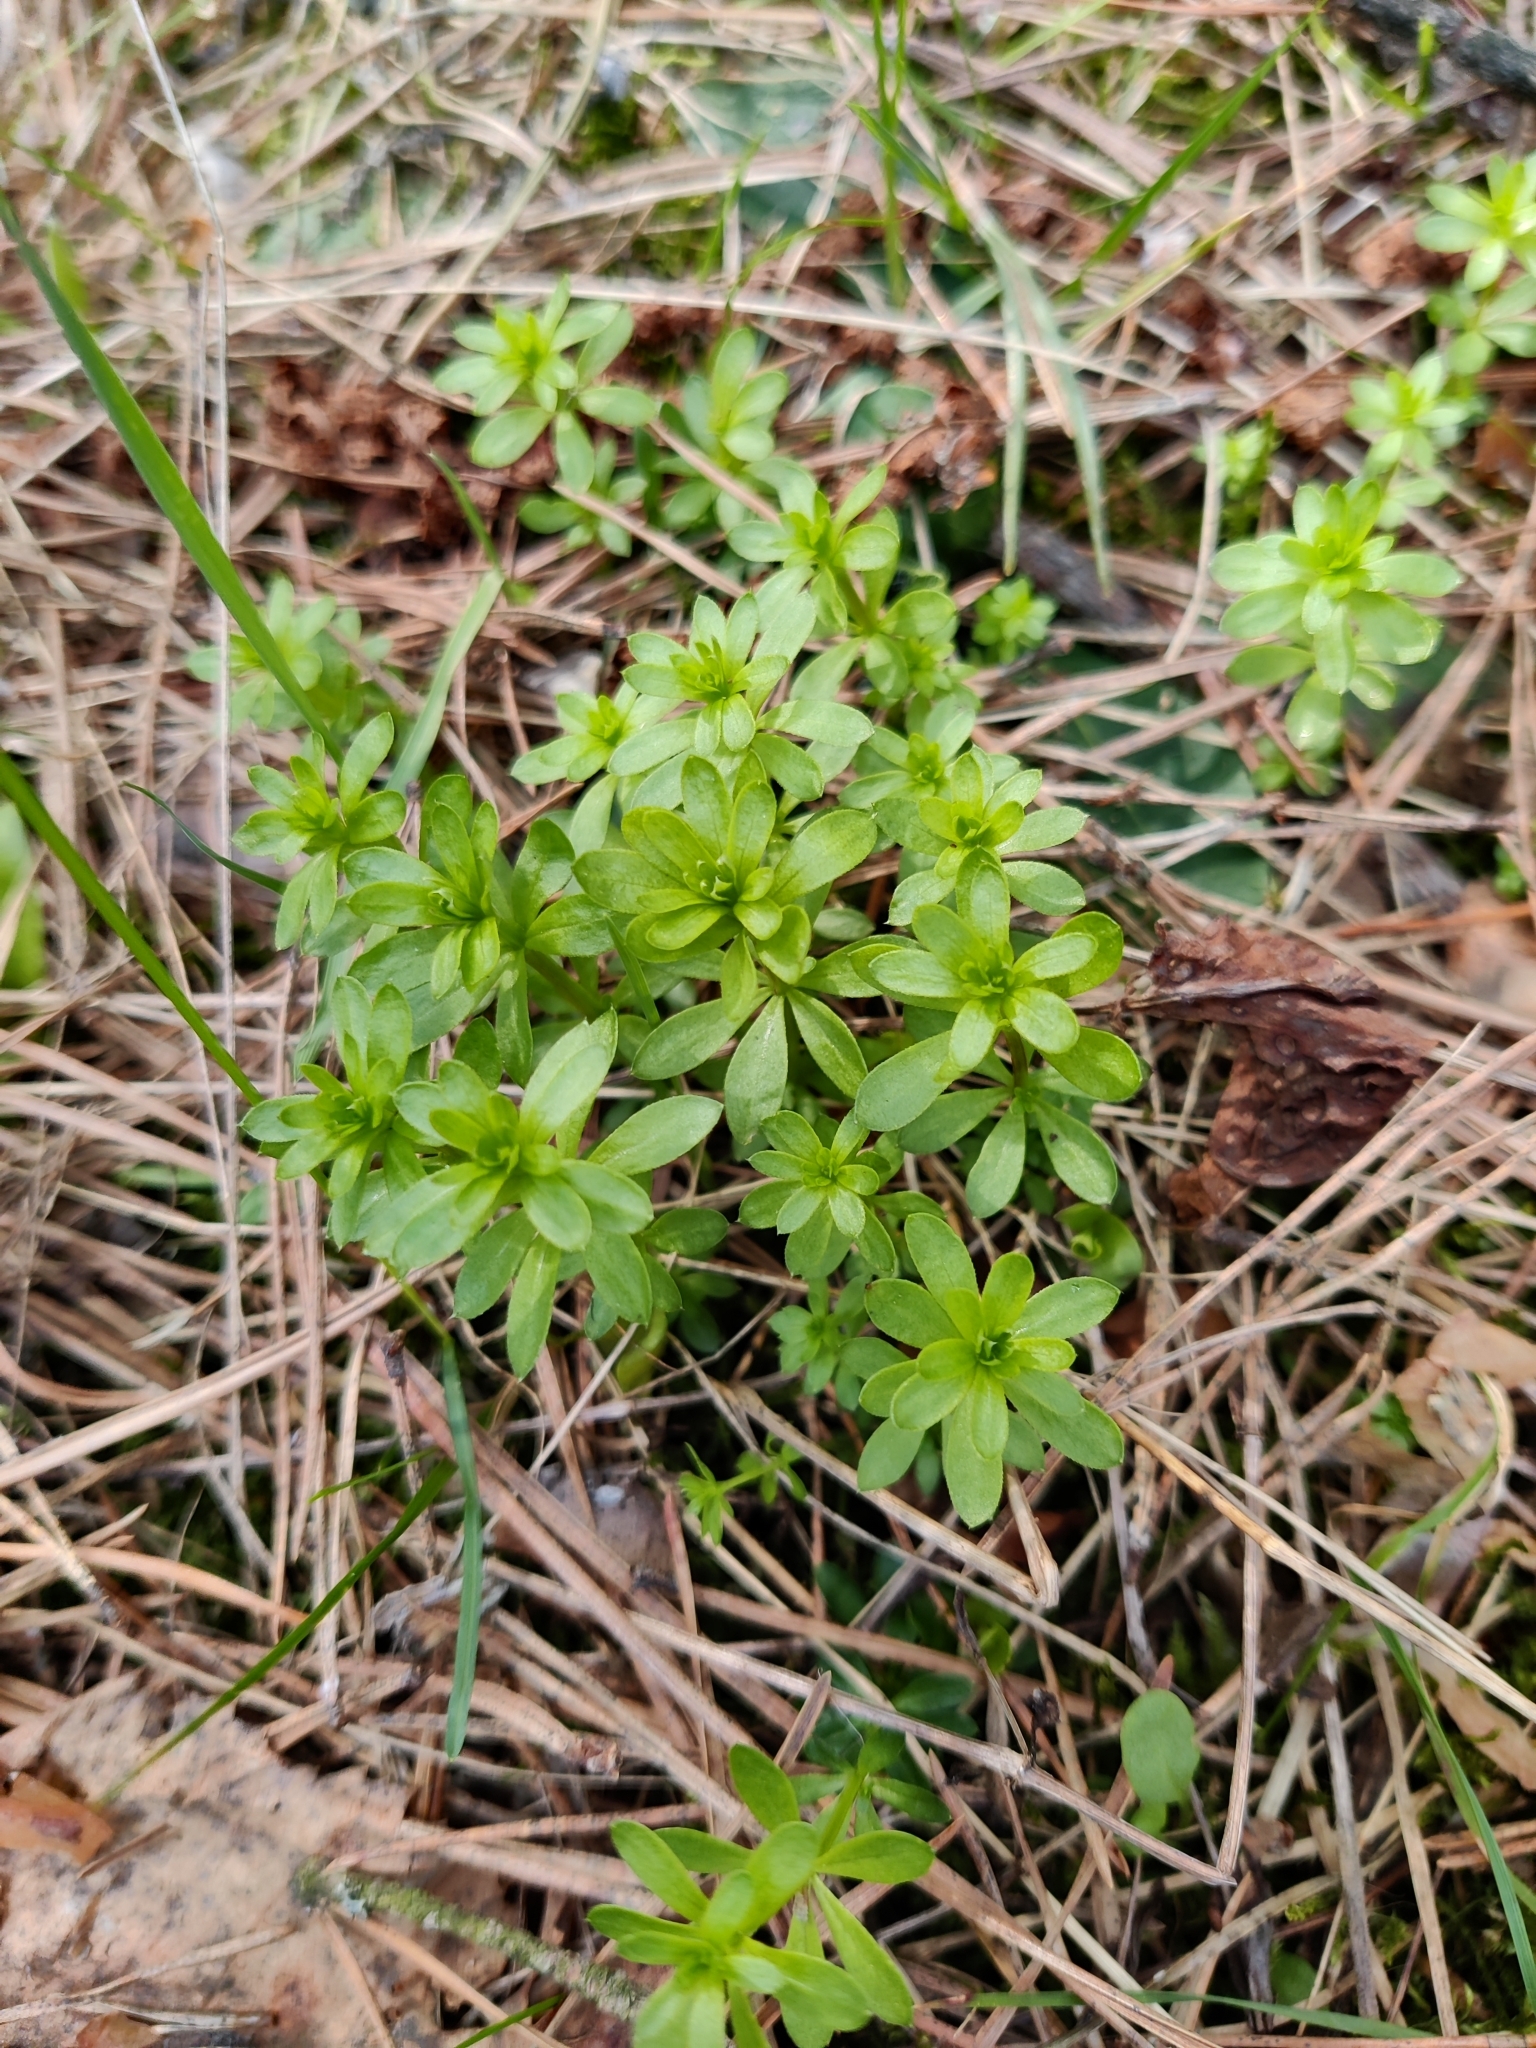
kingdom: Plantae
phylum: Tracheophyta
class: Magnoliopsida
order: Gentianales
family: Rubiaceae
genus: Galium
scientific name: Galium mollugo
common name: Hedge bedstraw
